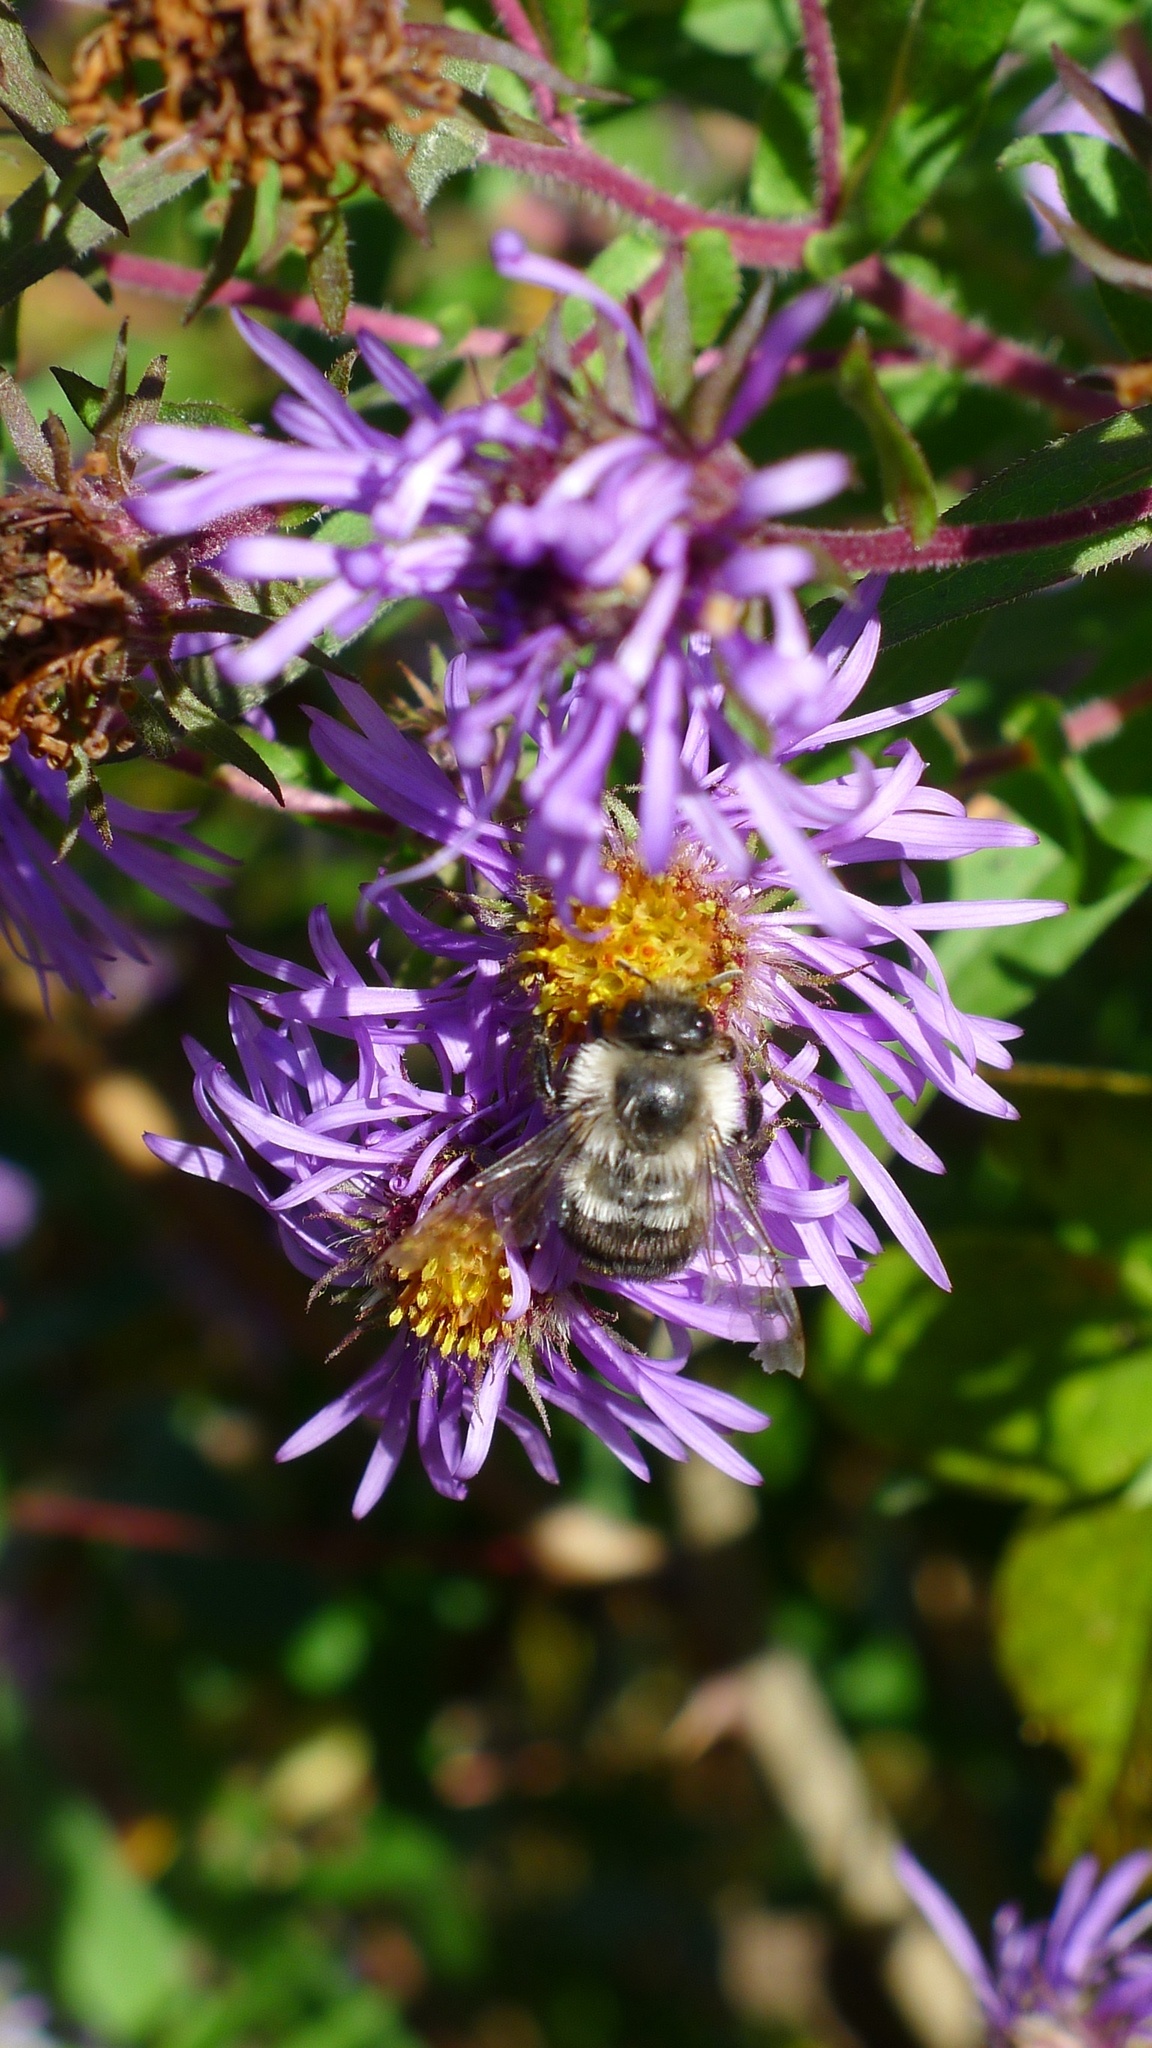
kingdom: Animalia
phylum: Arthropoda
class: Insecta
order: Hymenoptera
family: Apidae
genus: Bombus
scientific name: Bombus impatiens
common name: Common eastern bumble bee
